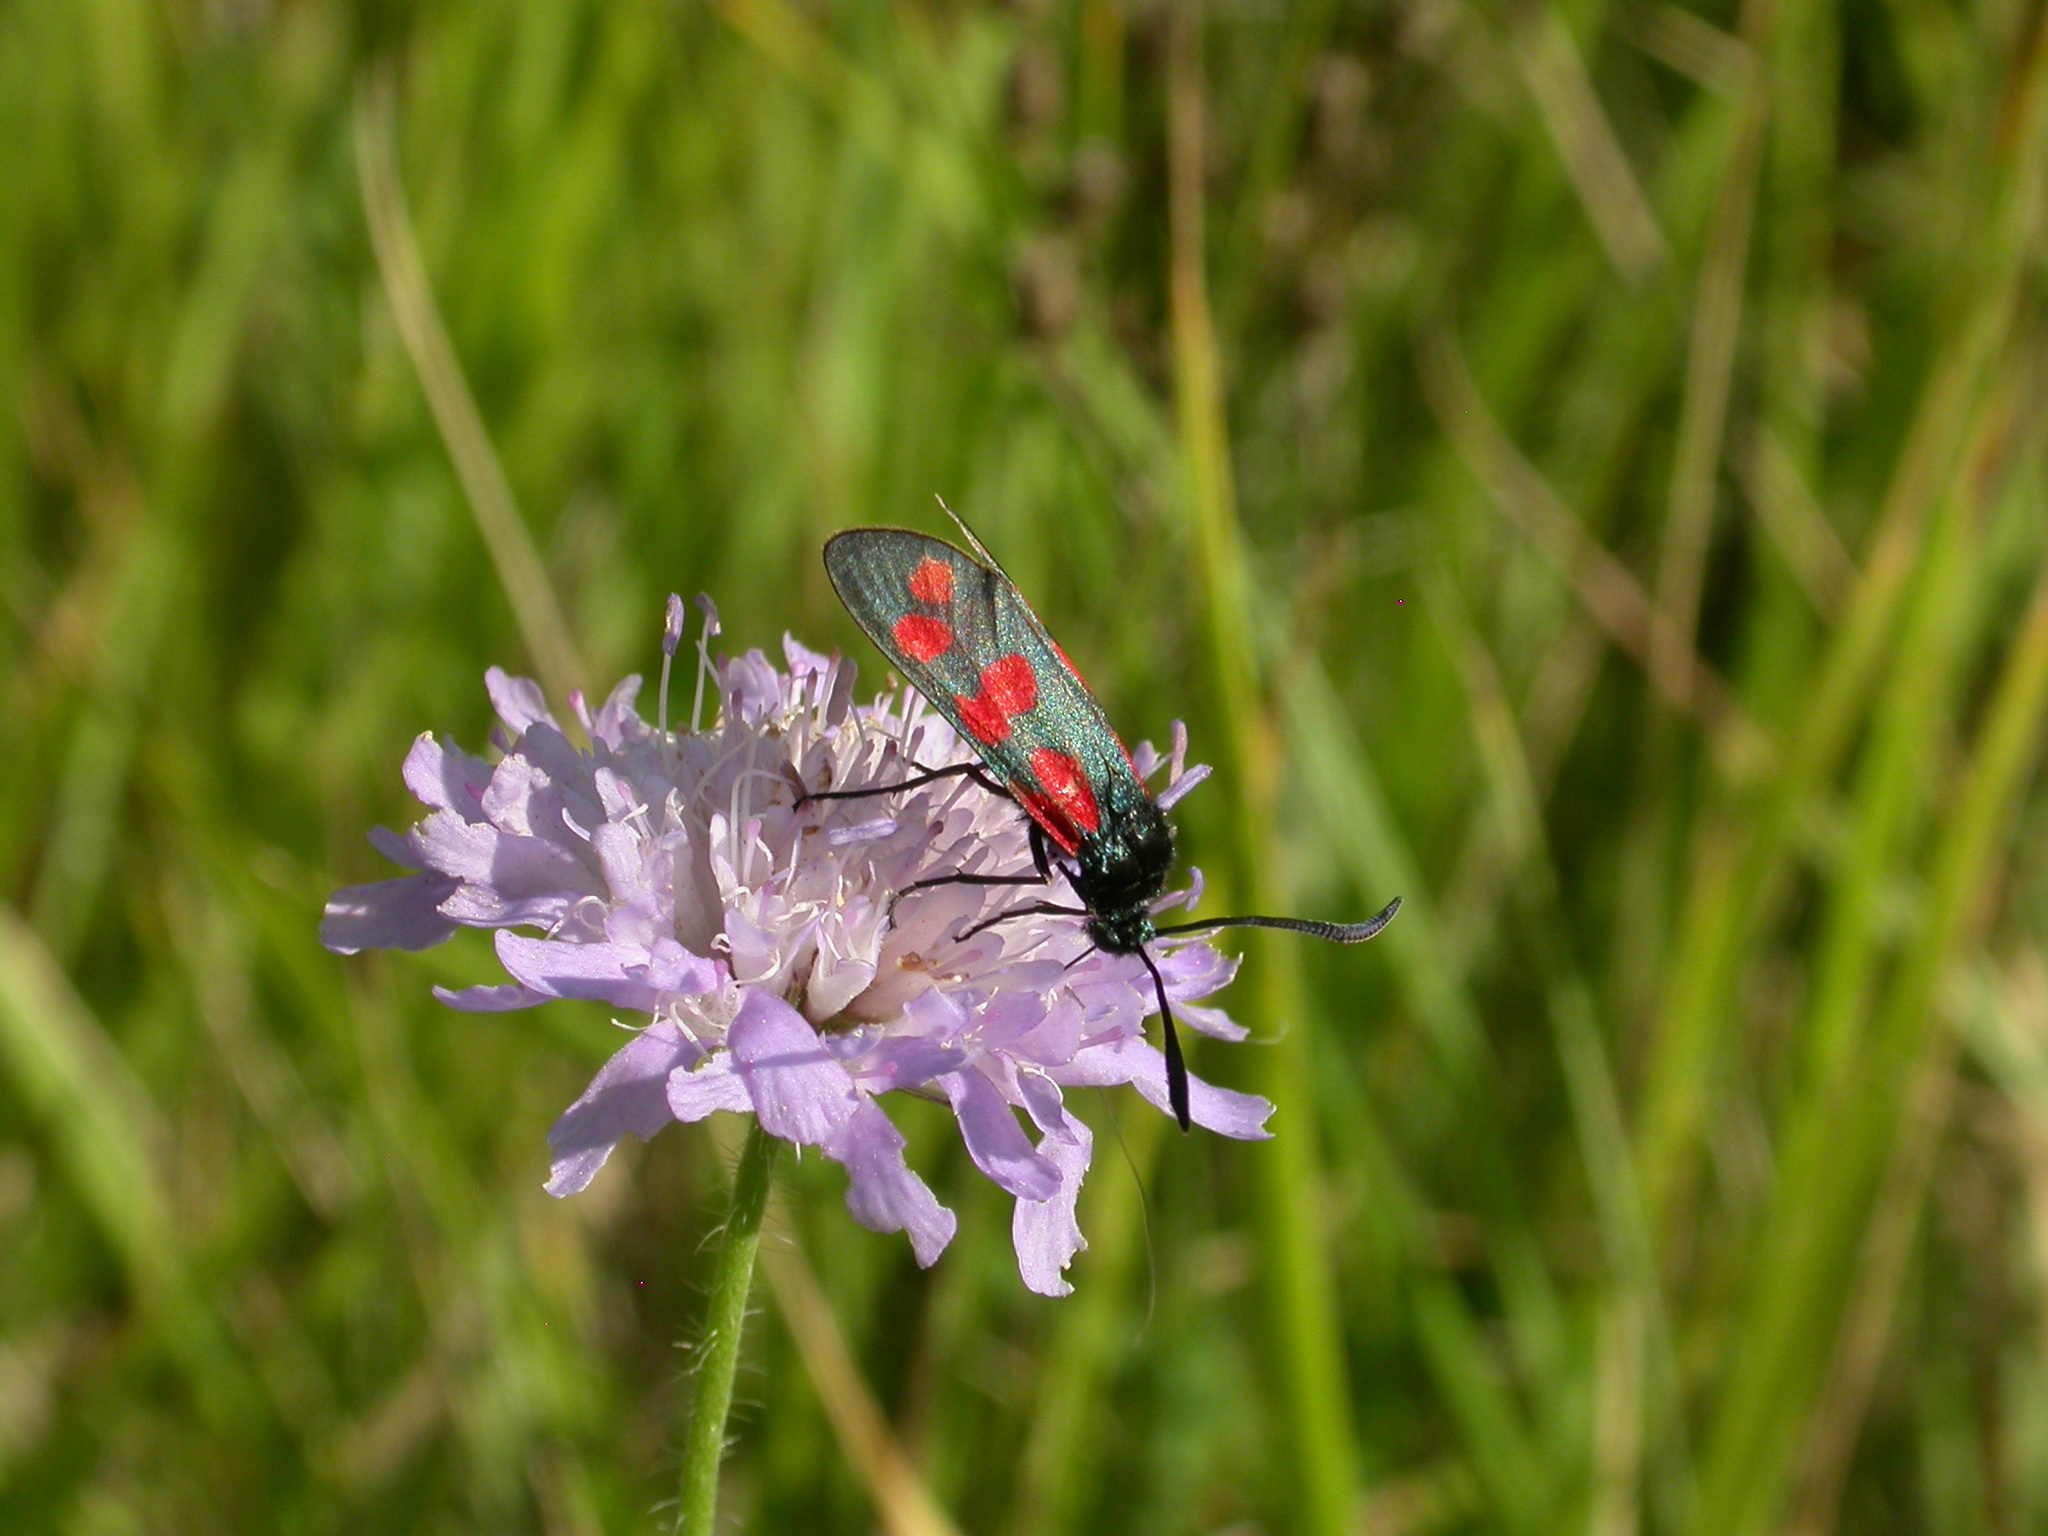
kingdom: Animalia
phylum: Arthropoda
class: Insecta
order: Lepidoptera
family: Zygaenidae
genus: Zygaena
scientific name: Zygaena filipendulae
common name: Six-spot burnet
